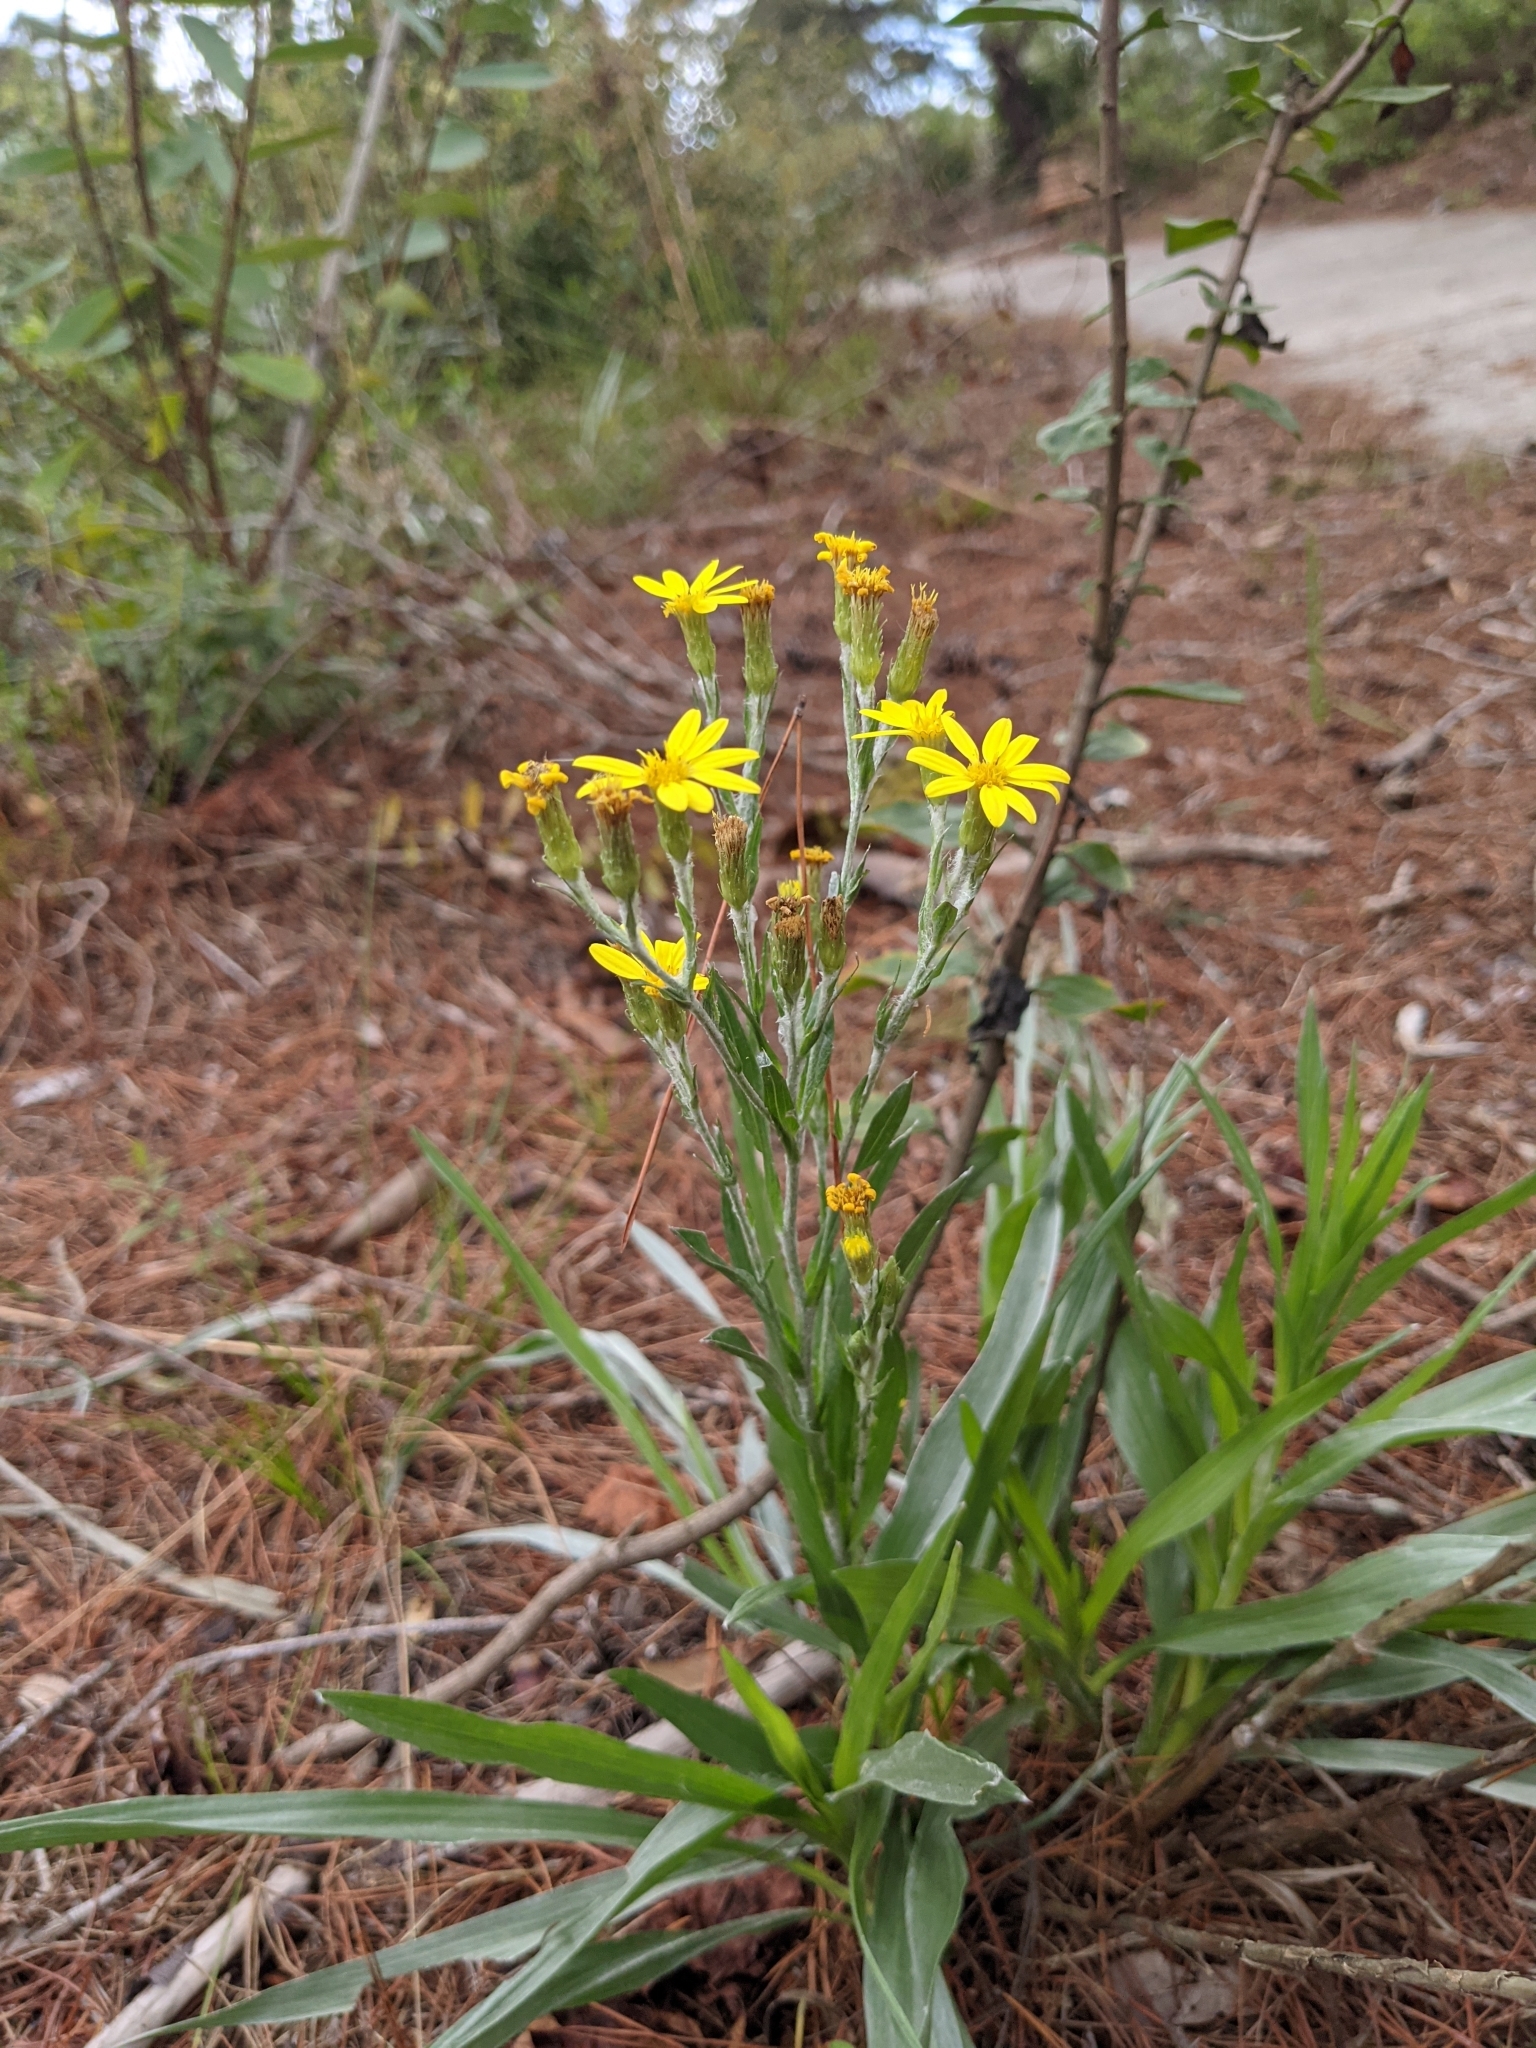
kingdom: Plantae
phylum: Tracheophyta
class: Magnoliopsida
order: Asterales
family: Asteraceae
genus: Pityopsis
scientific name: Pityopsis graminifolia
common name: Grass-leaf golden-aster
